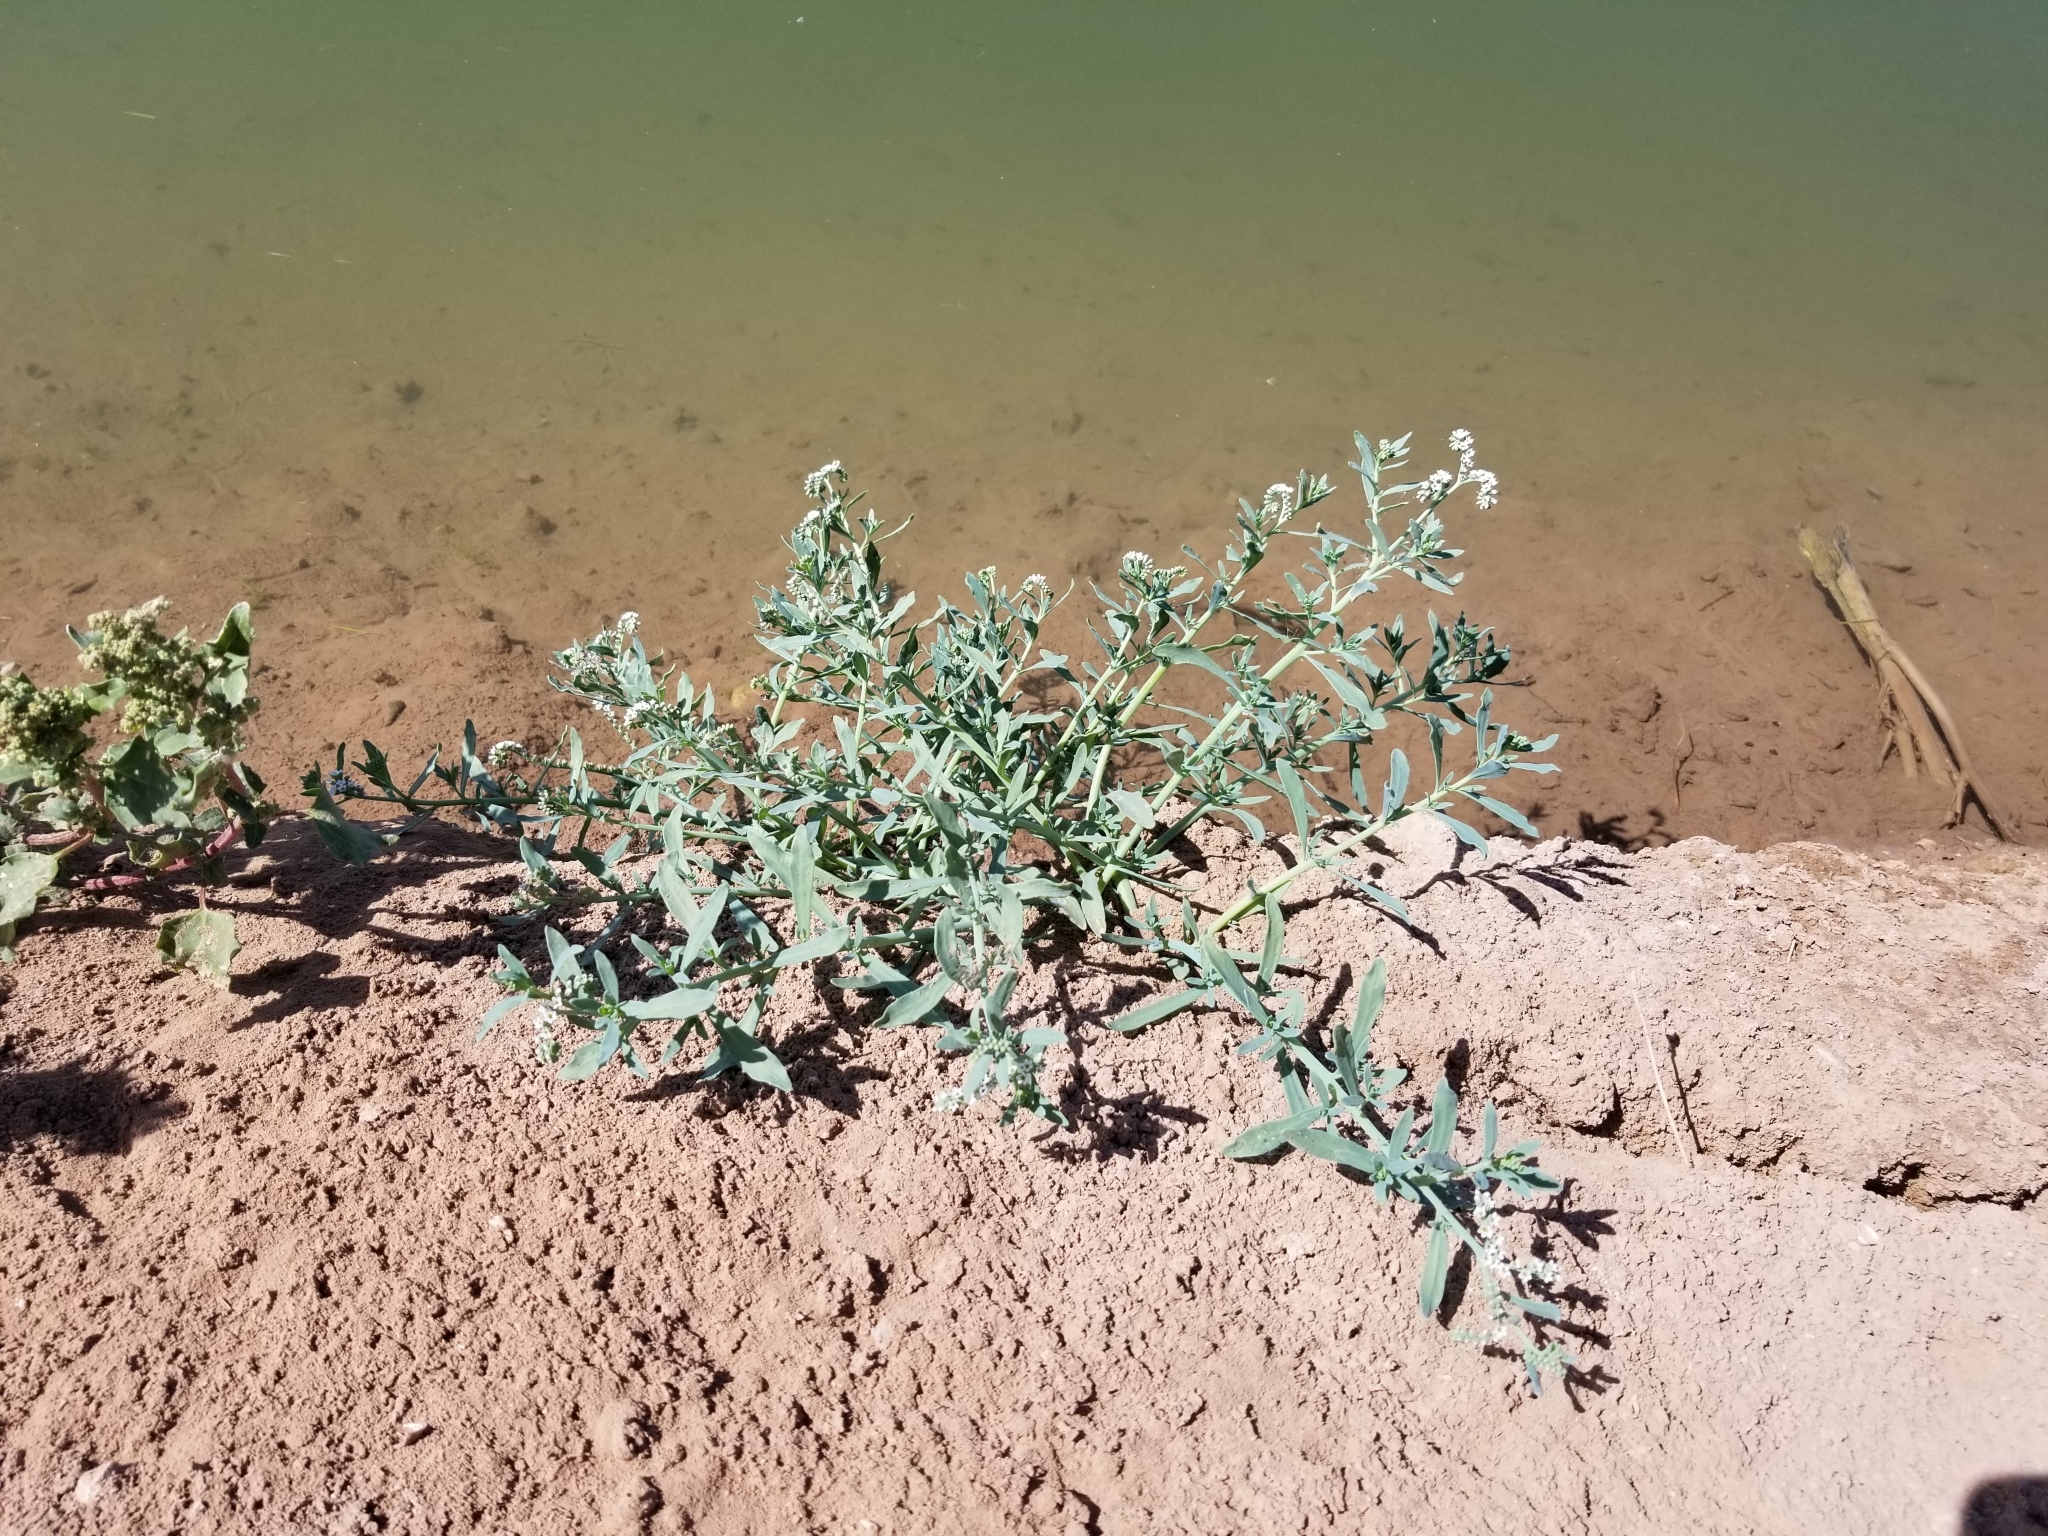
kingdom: Plantae
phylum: Tracheophyta
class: Magnoliopsida
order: Boraginales
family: Heliotropiaceae
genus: Heliotropium
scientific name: Heliotropium curassavicum
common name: Seaside heliotrope
